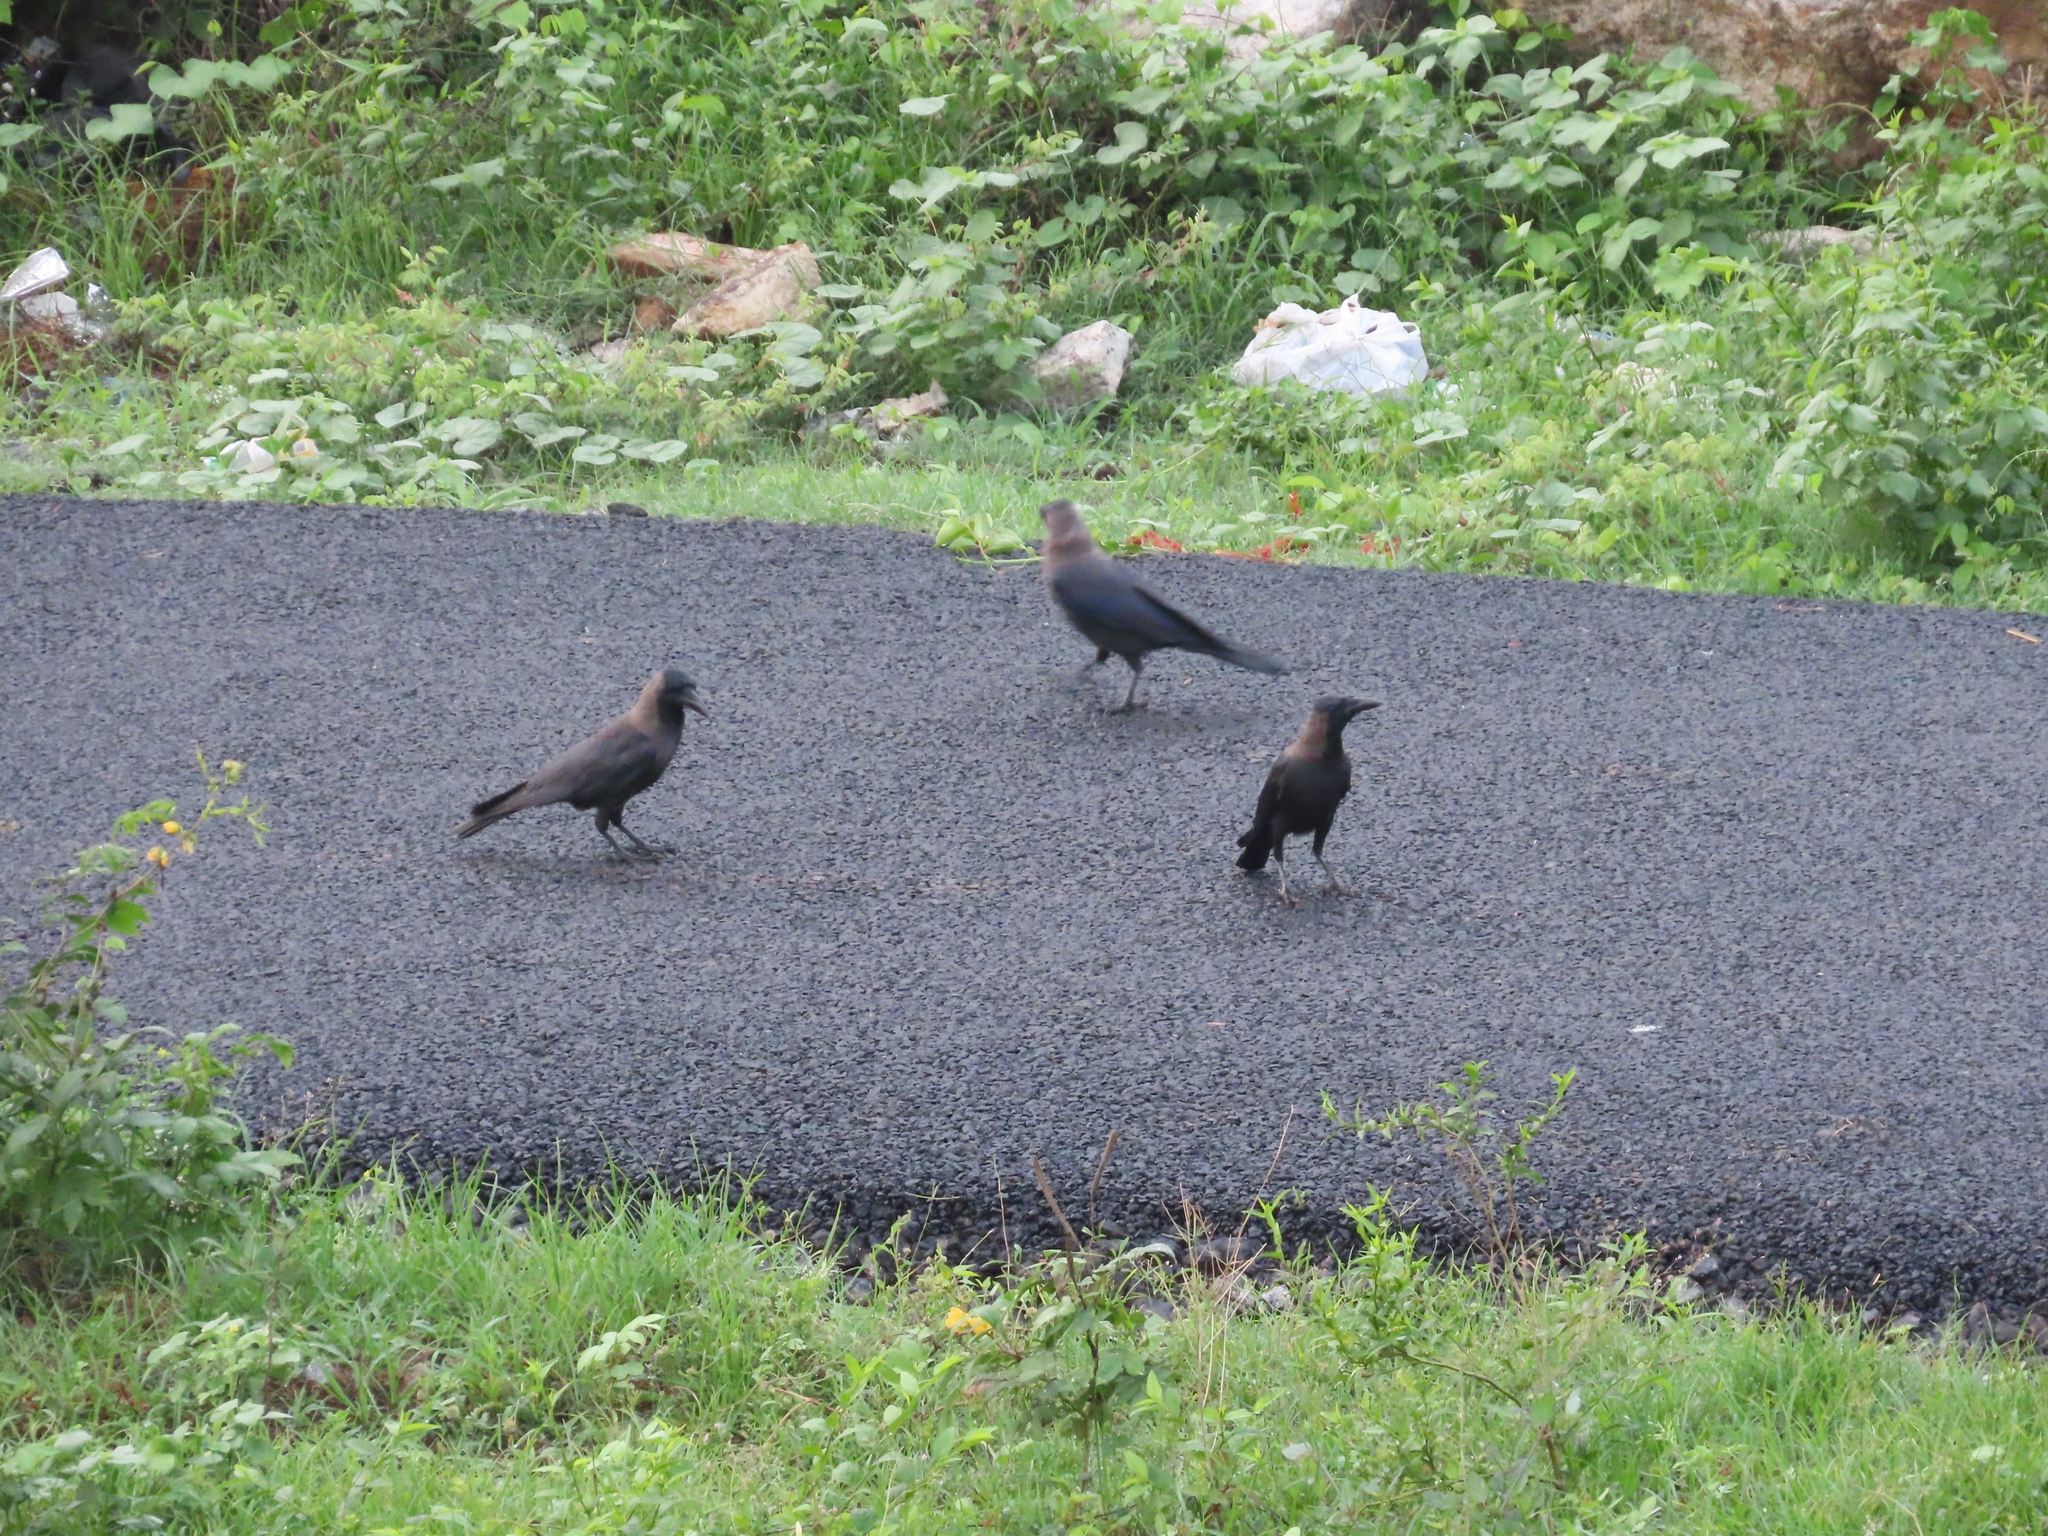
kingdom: Animalia
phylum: Chordata
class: Aves
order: Passeriformes
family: Corvidae
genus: Corvus
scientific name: Corvus splendens
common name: House crow
